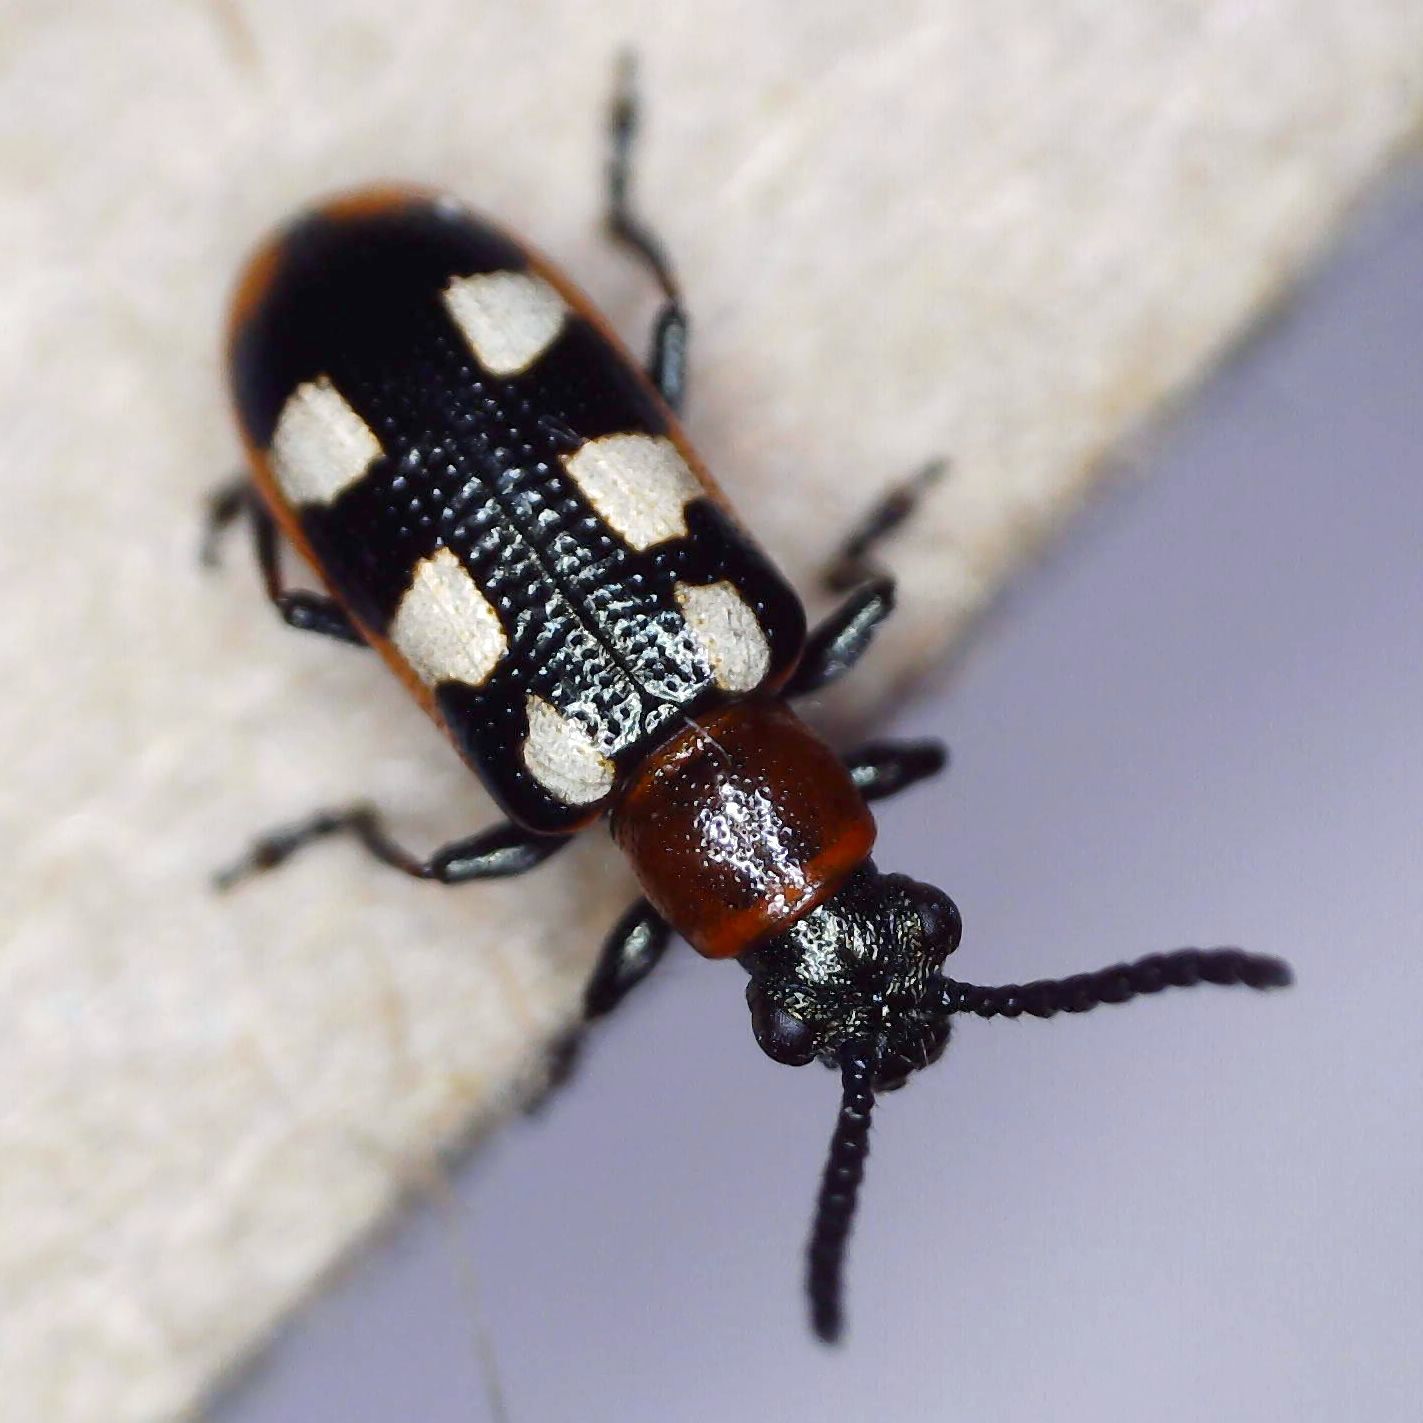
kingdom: Animalia
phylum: Arthropoda
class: Insecta
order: Coleoptera
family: Chrysomelidae
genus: Crioceris
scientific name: Crioceris asparagi
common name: Asparagus beetle
